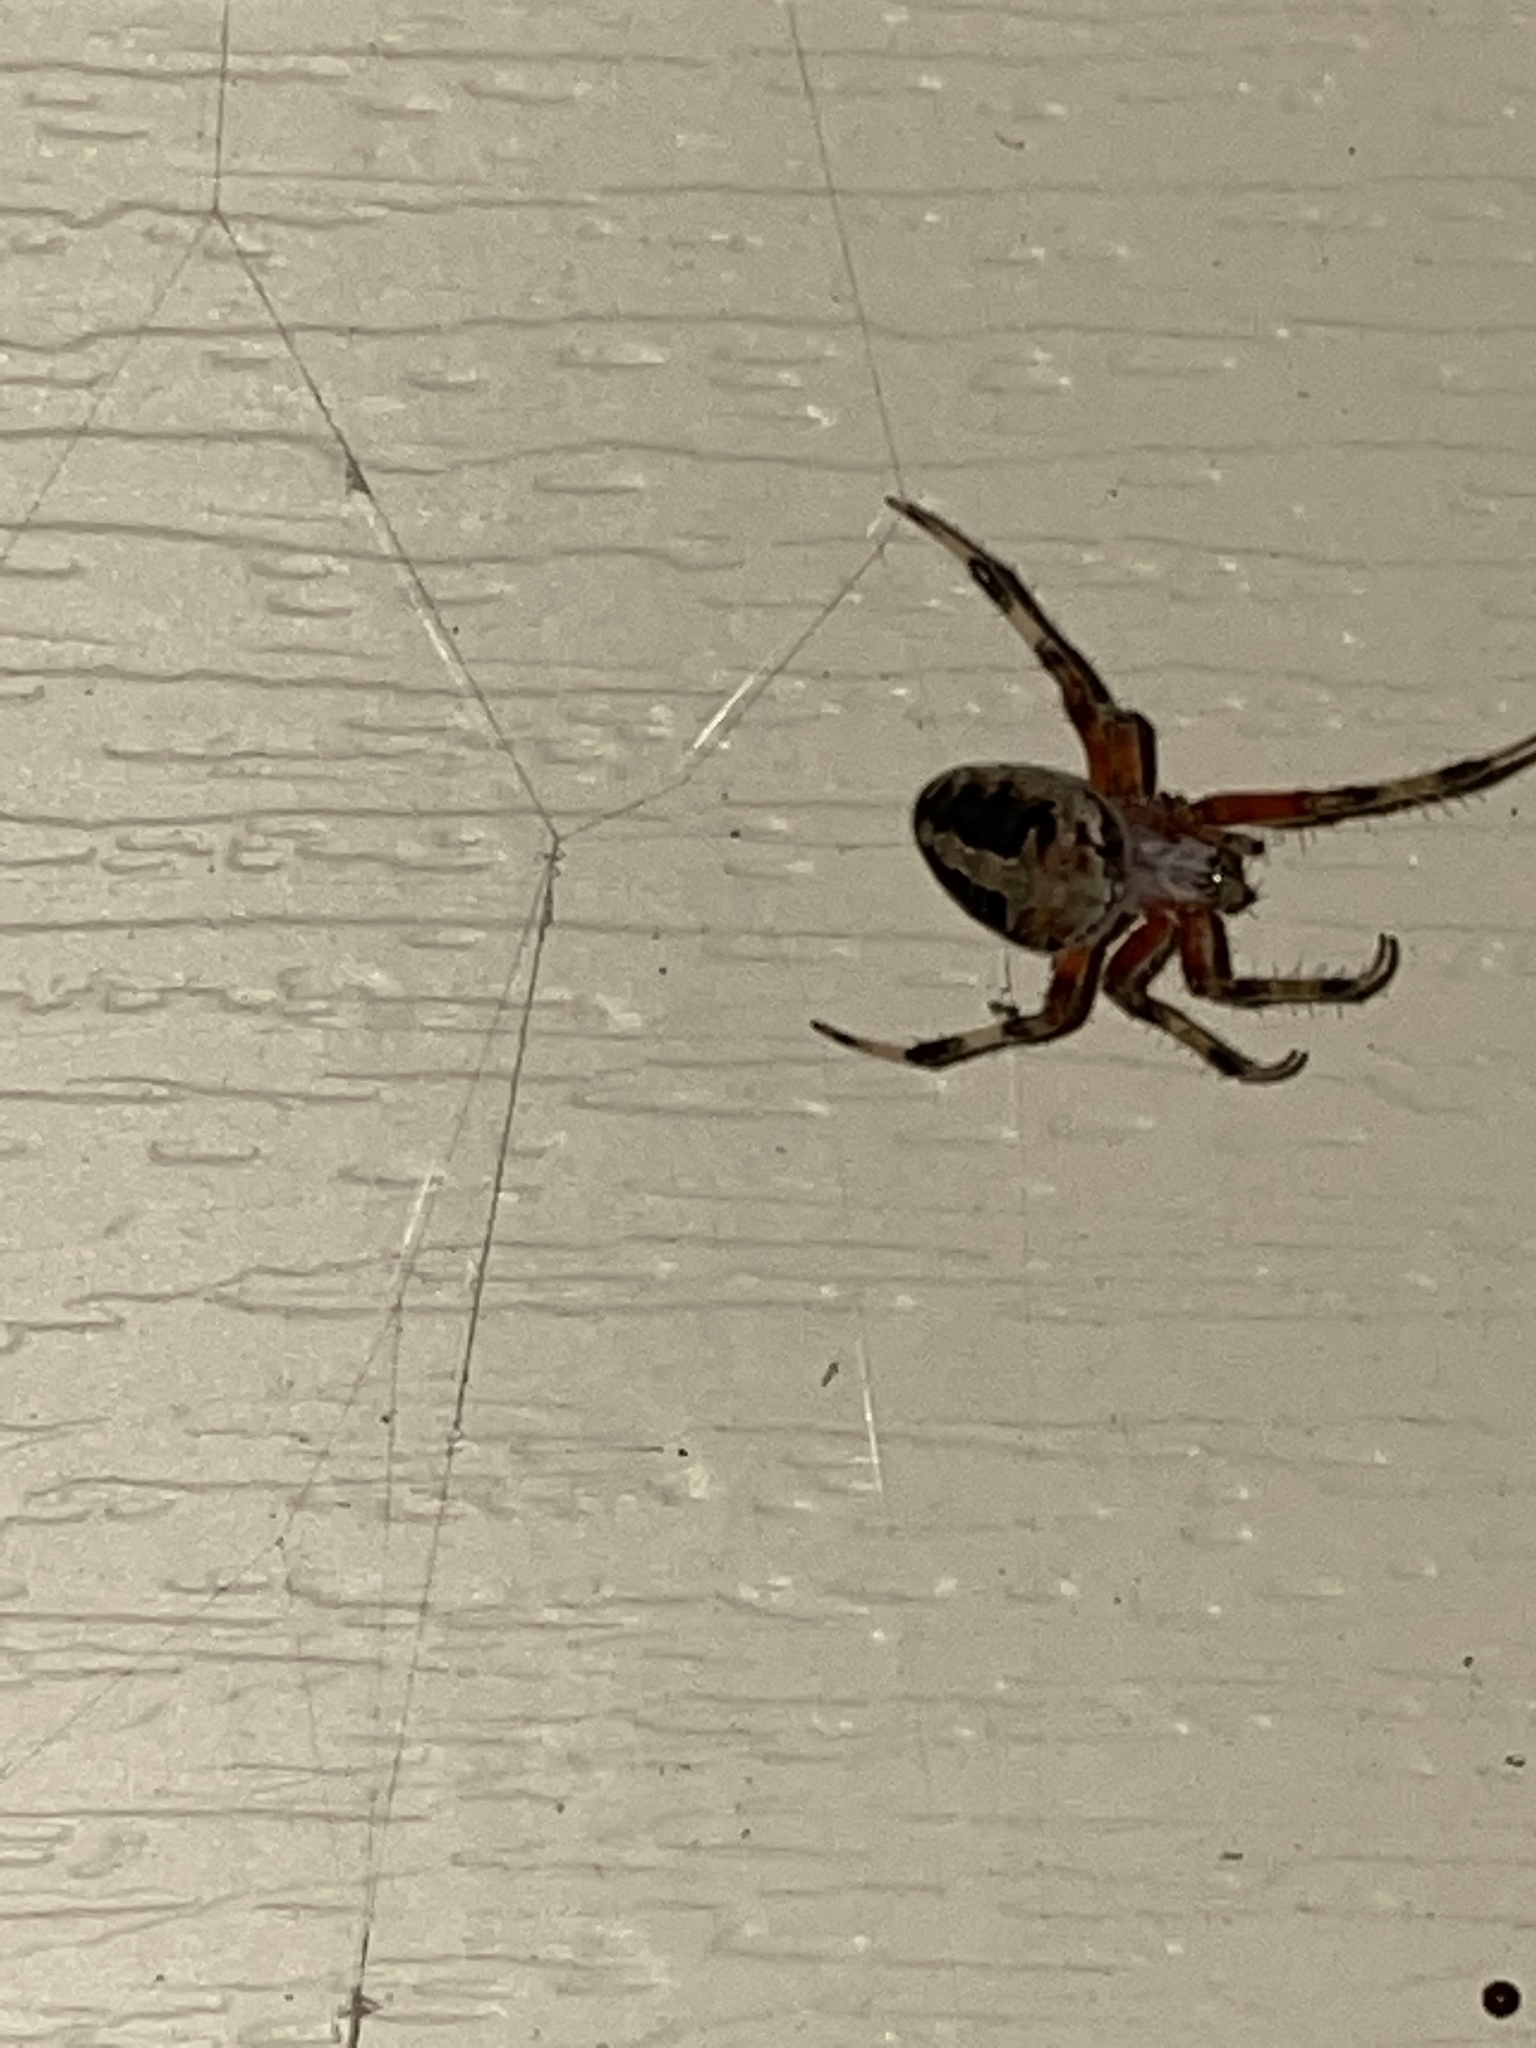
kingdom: Animalia
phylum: Arthropoda
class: Arachnida
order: Araneae
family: Araneidae
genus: Neoscona
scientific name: Neoscona domiciliorum
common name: Red-femured spotted orbweaver
